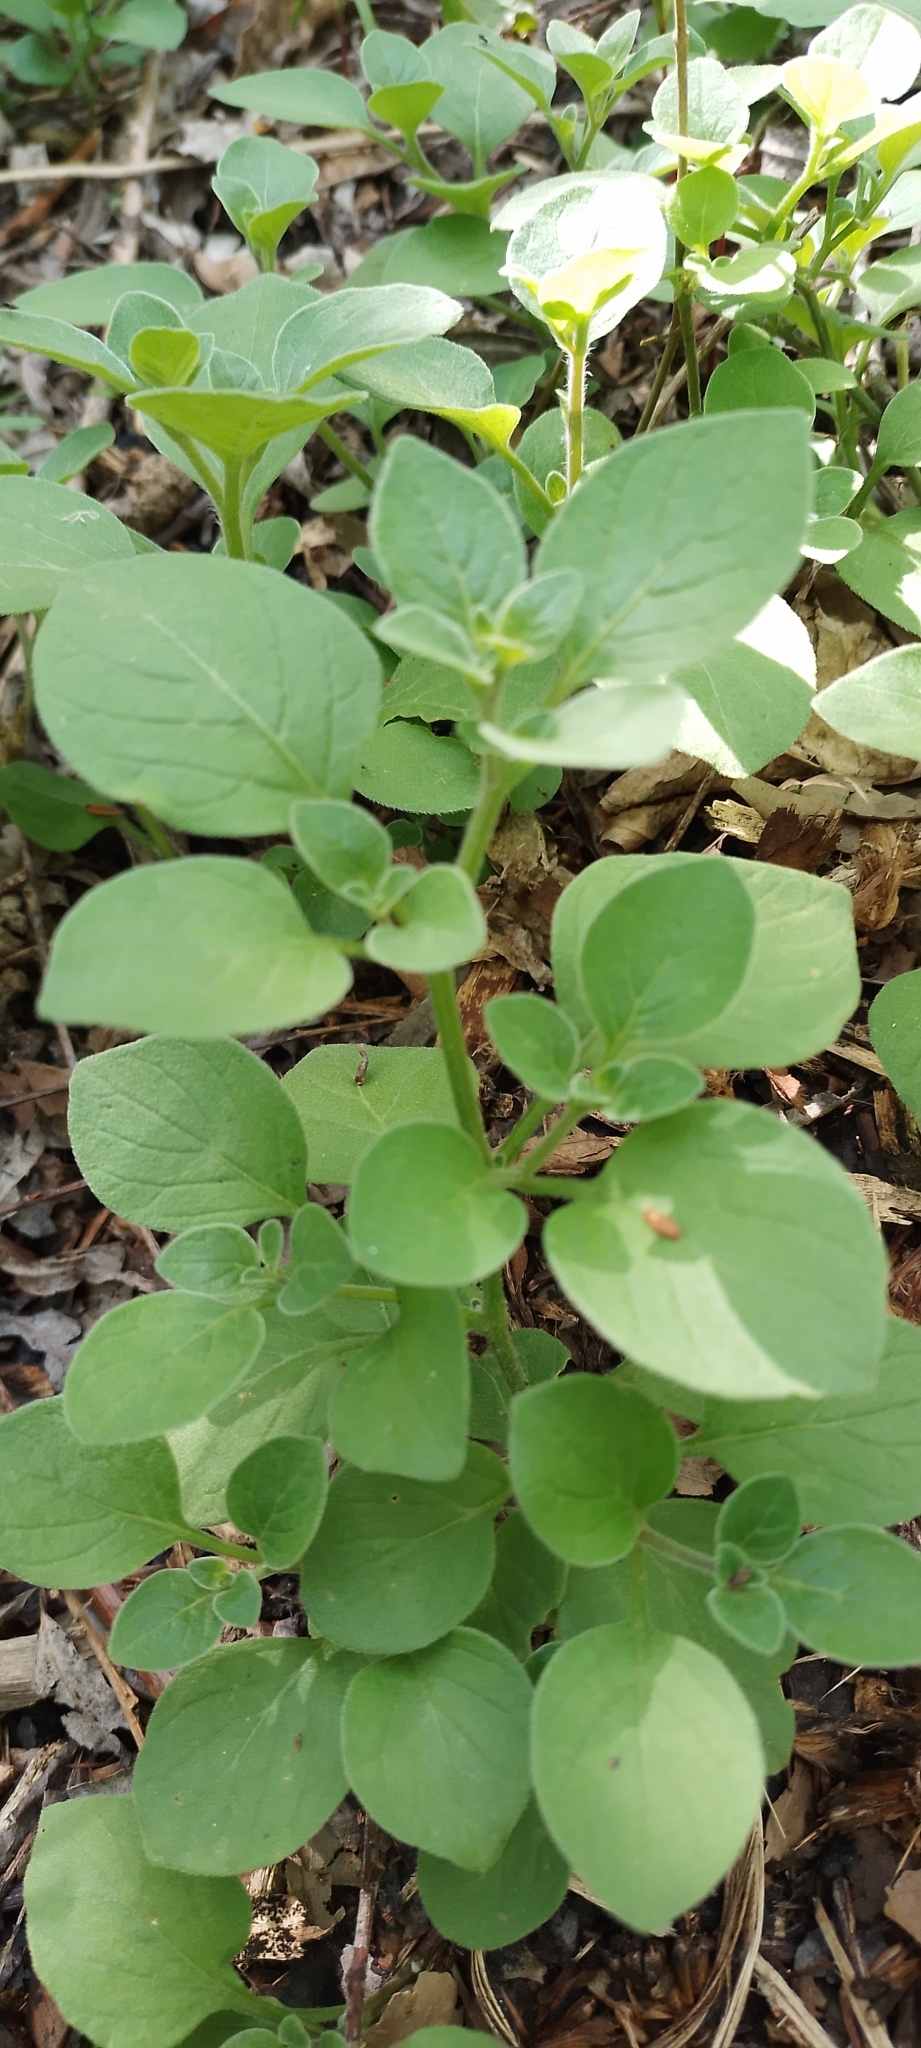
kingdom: Plantae
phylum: Tracheophyta
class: Magnoliopsida
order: Solanales
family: Solanaceae
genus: Salpichroa
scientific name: Salpichroa origanifolia
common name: Lily-of-the-valley-vine
